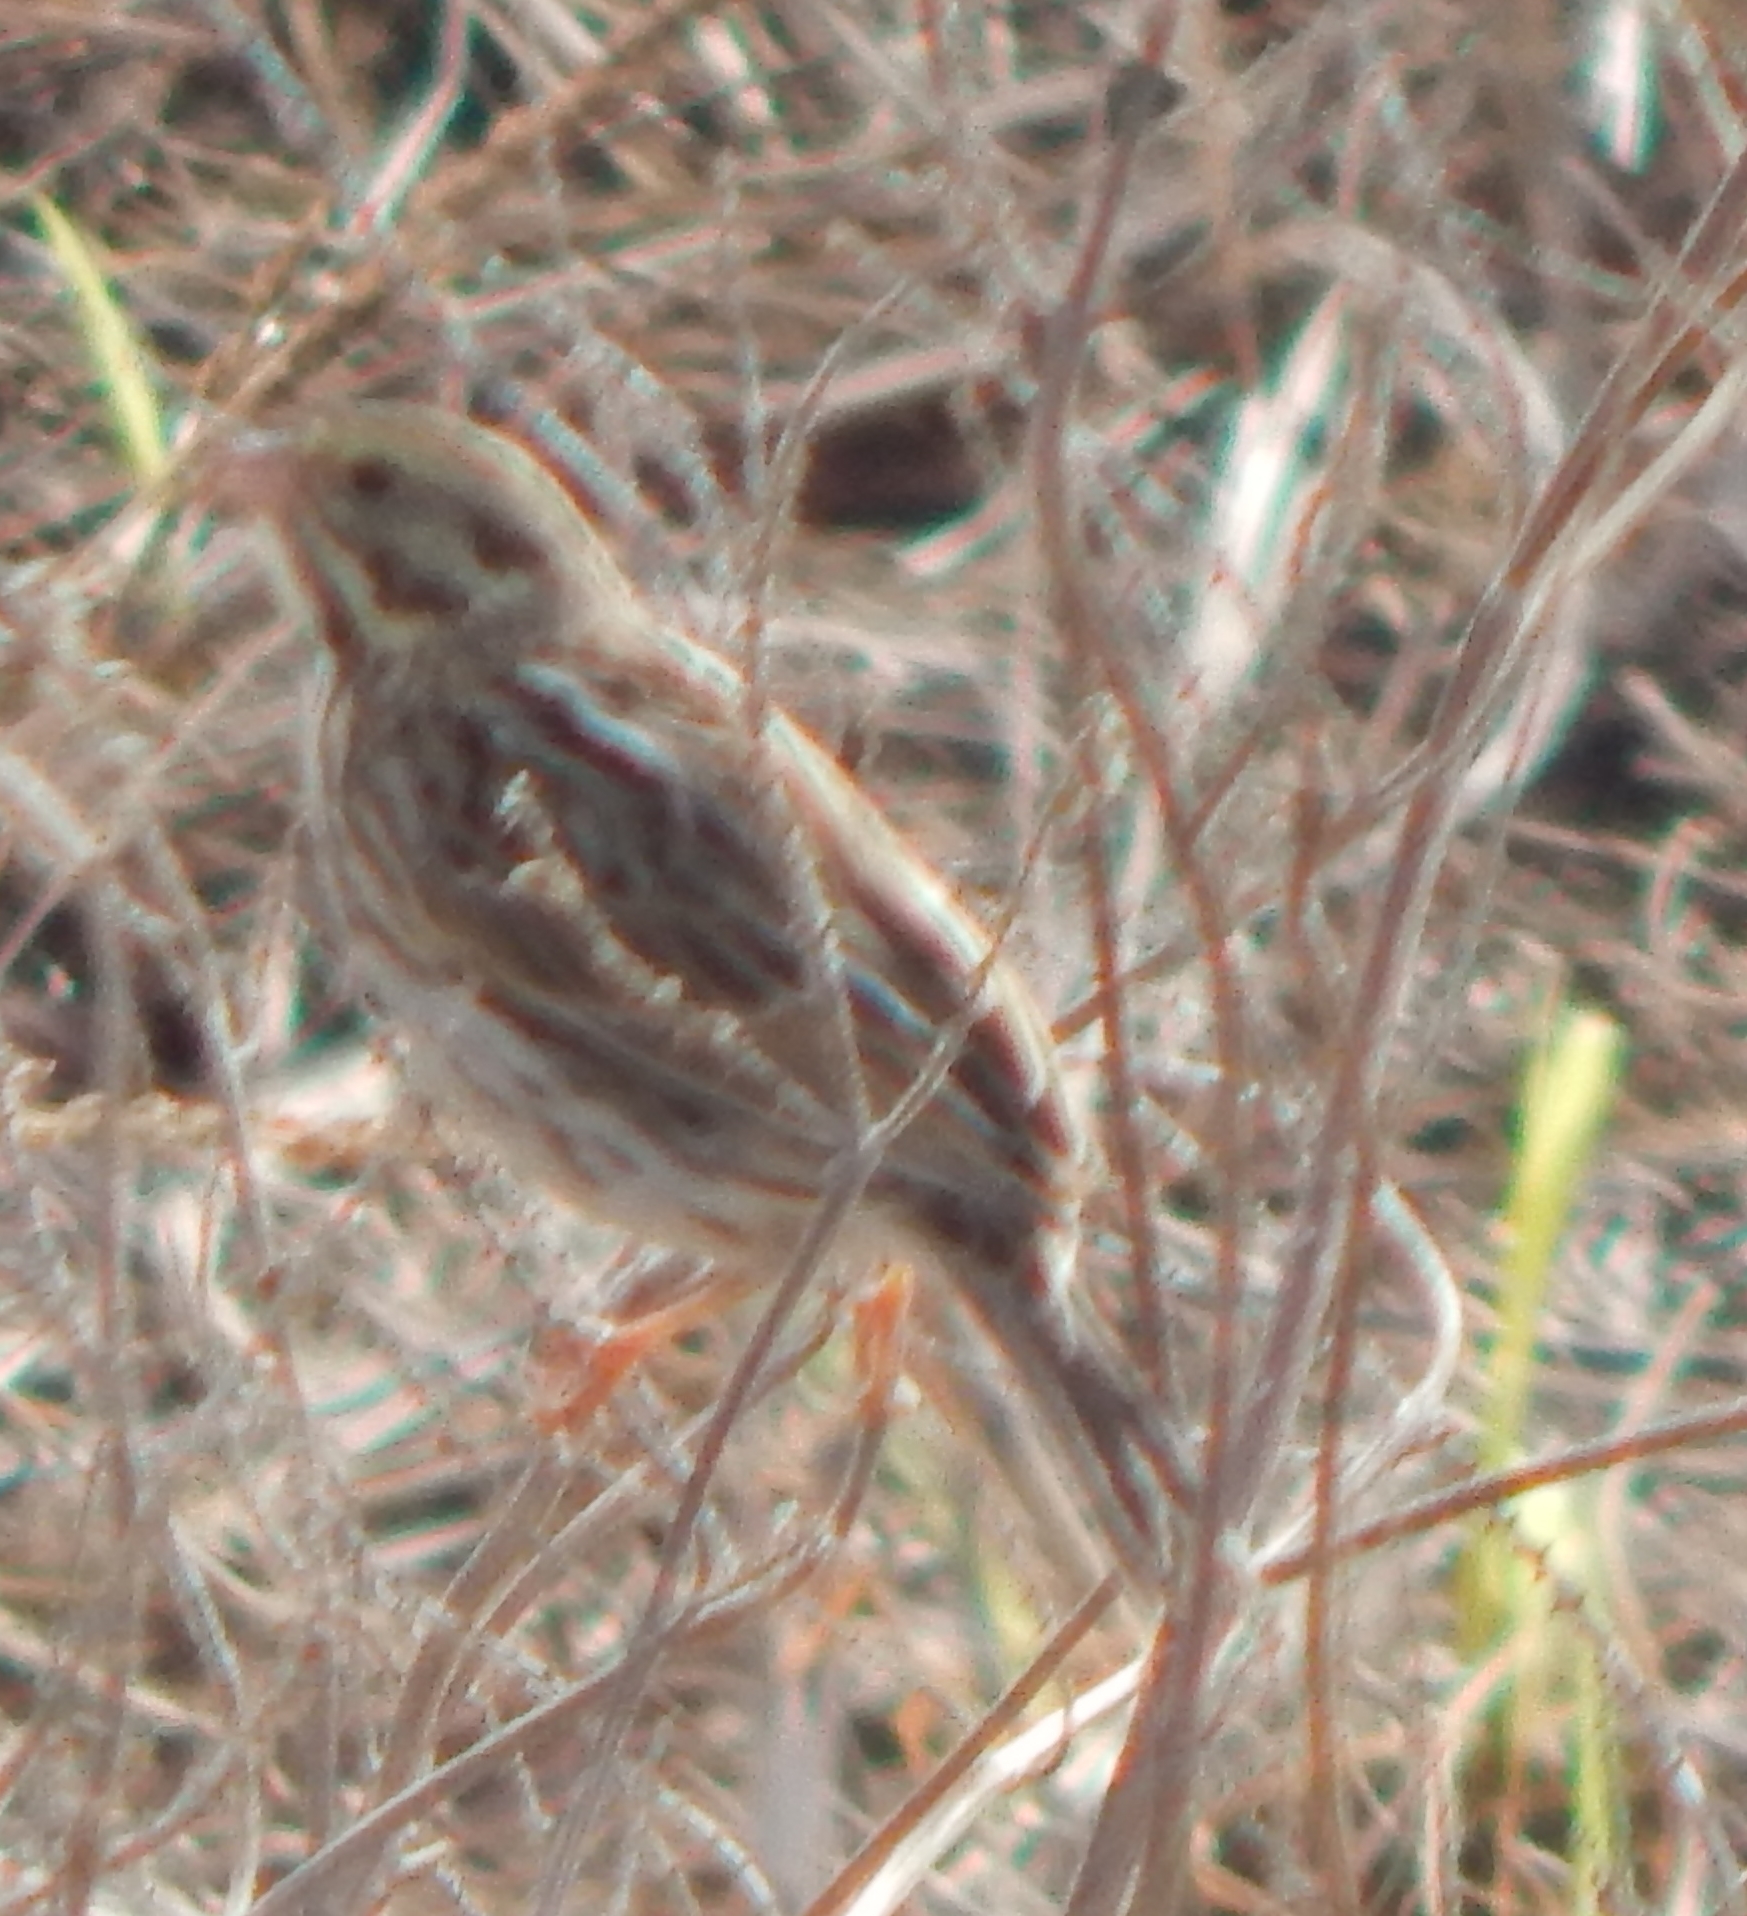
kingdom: Animalia
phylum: Chordata
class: Aves
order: Passeriformes
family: Passerellidae
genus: Passerculus
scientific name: Passerculus sandwichensis
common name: Savannah sparrow
